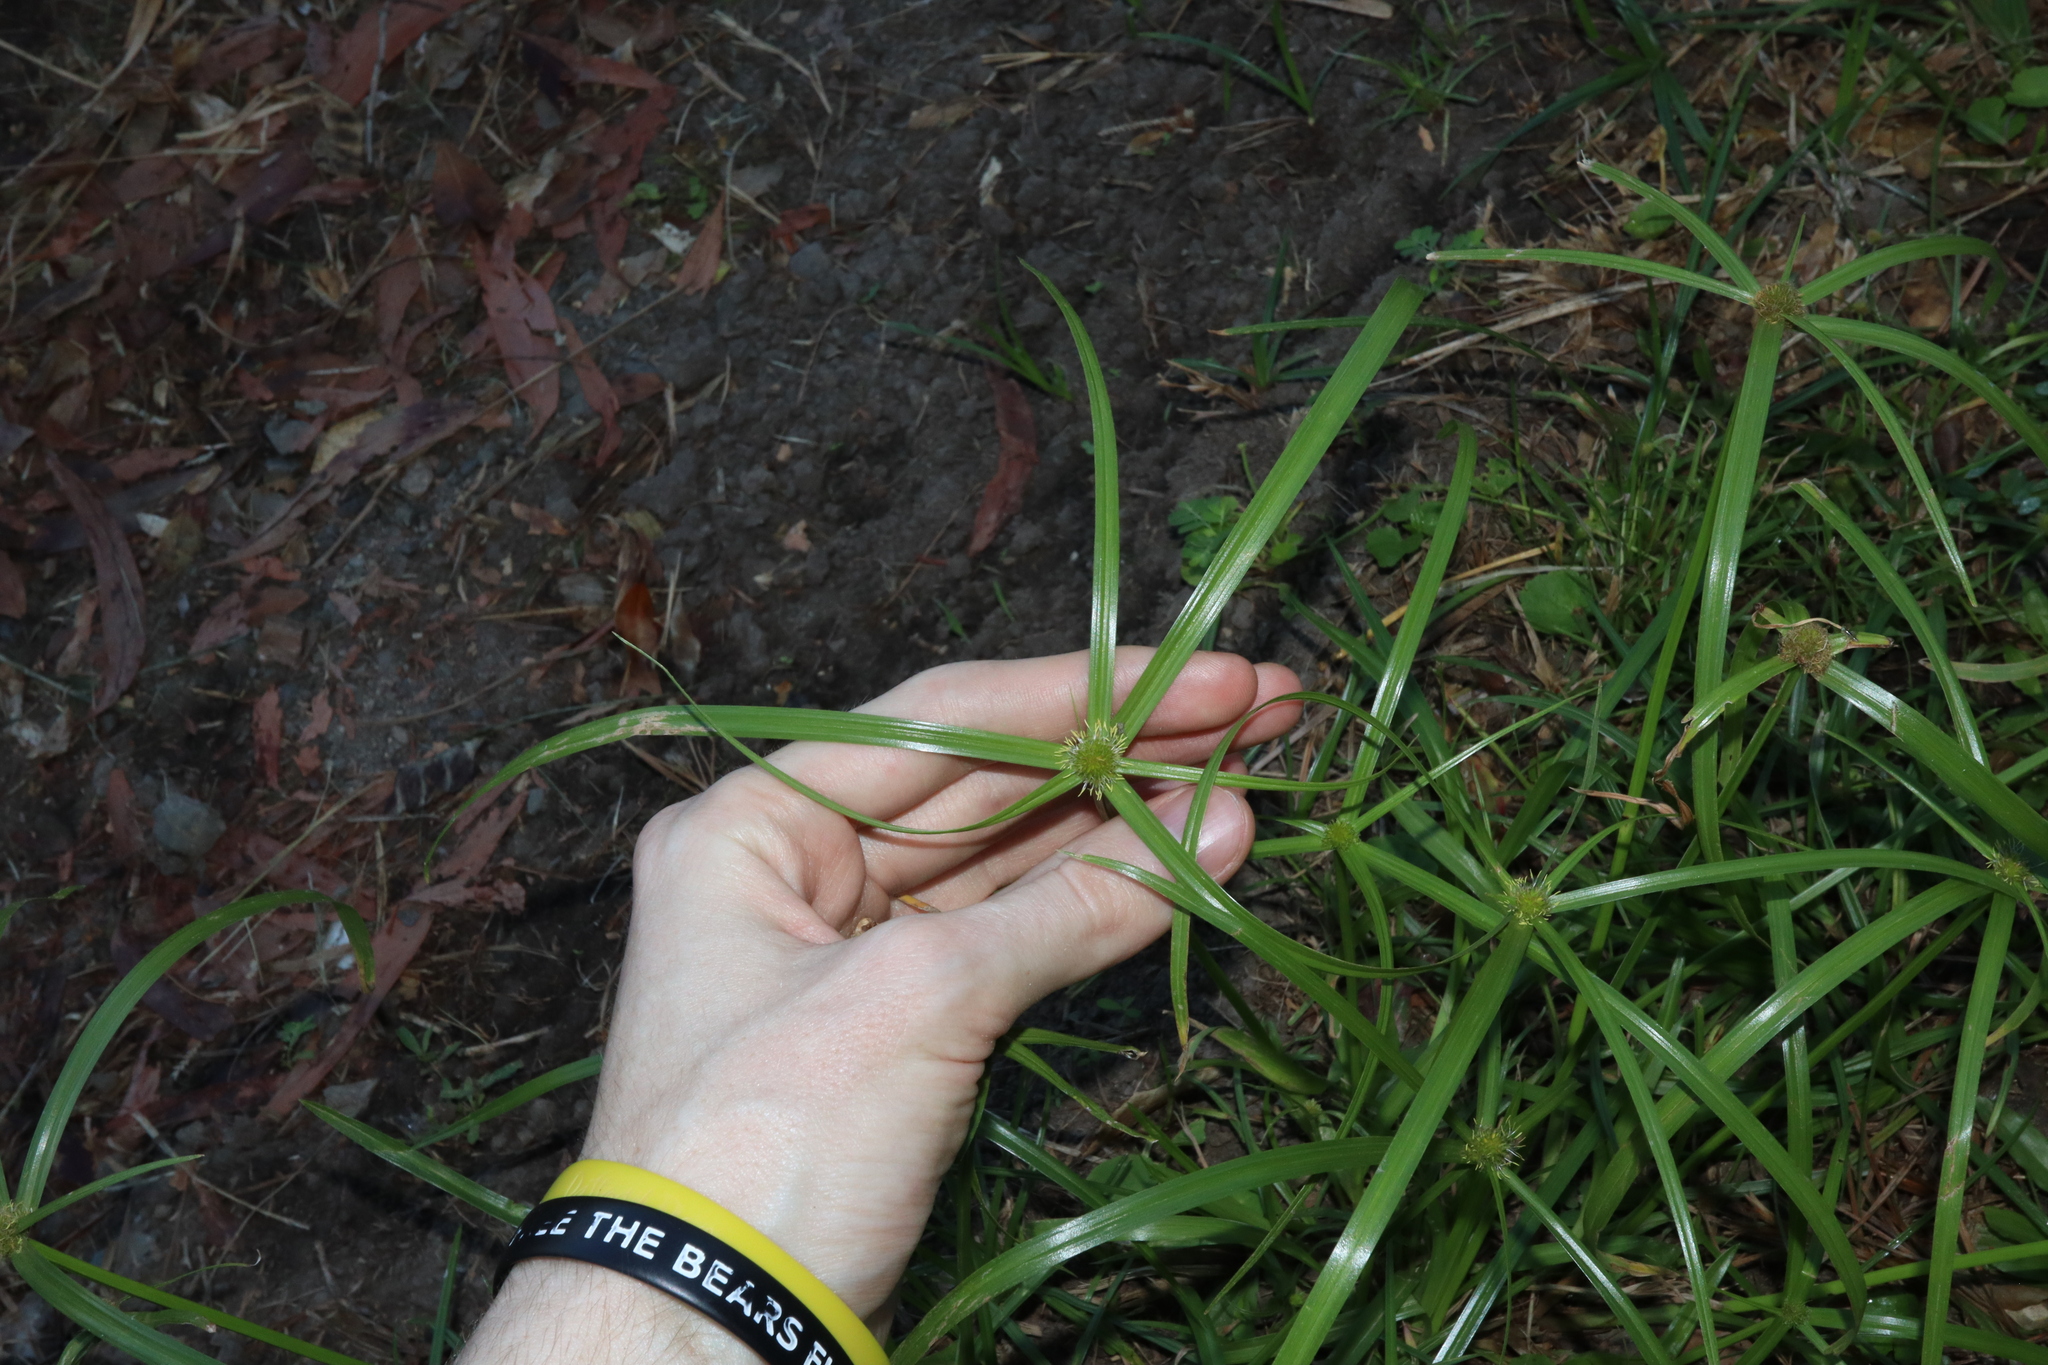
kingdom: Plantae
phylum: Tracheophyta
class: Liliopsida
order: Poales
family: Cyperaceae
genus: Cyperus
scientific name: Cyperus aromaticus
